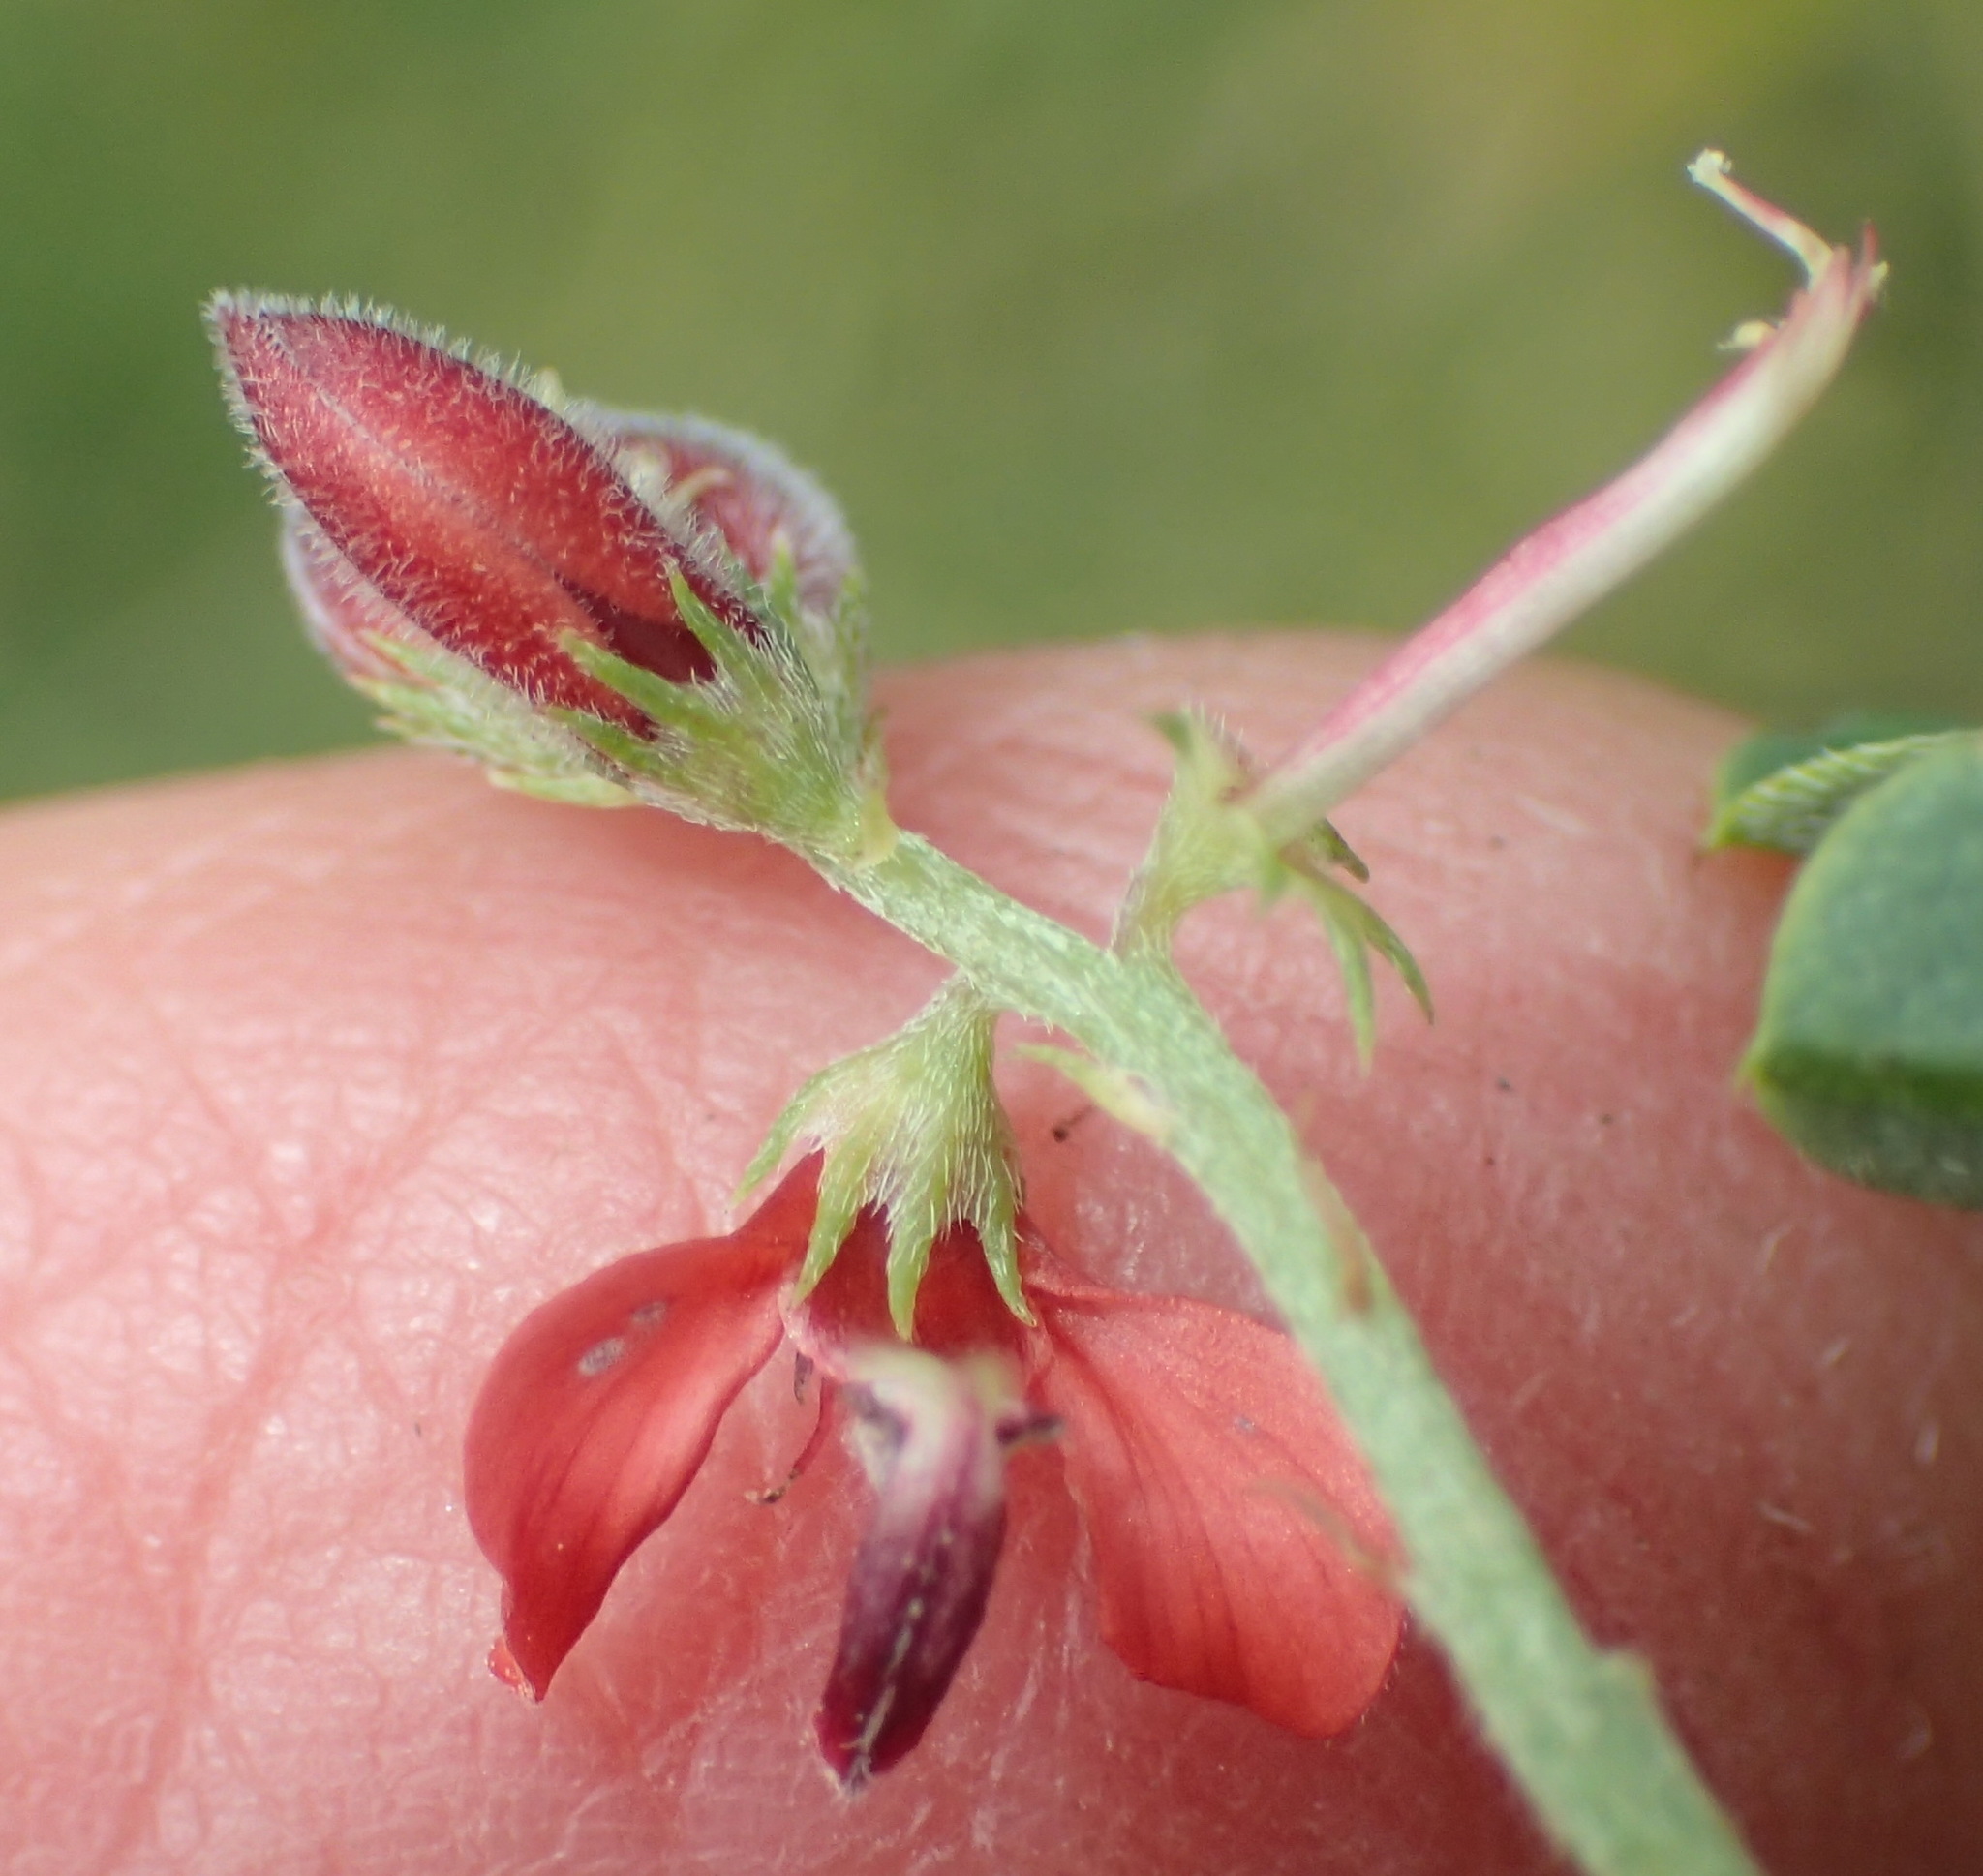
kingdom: Plantae
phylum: Tracheophyta
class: Magnoliopsida
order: Fabales
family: Fabaceae
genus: Indigofera
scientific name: Indigofera erecta
